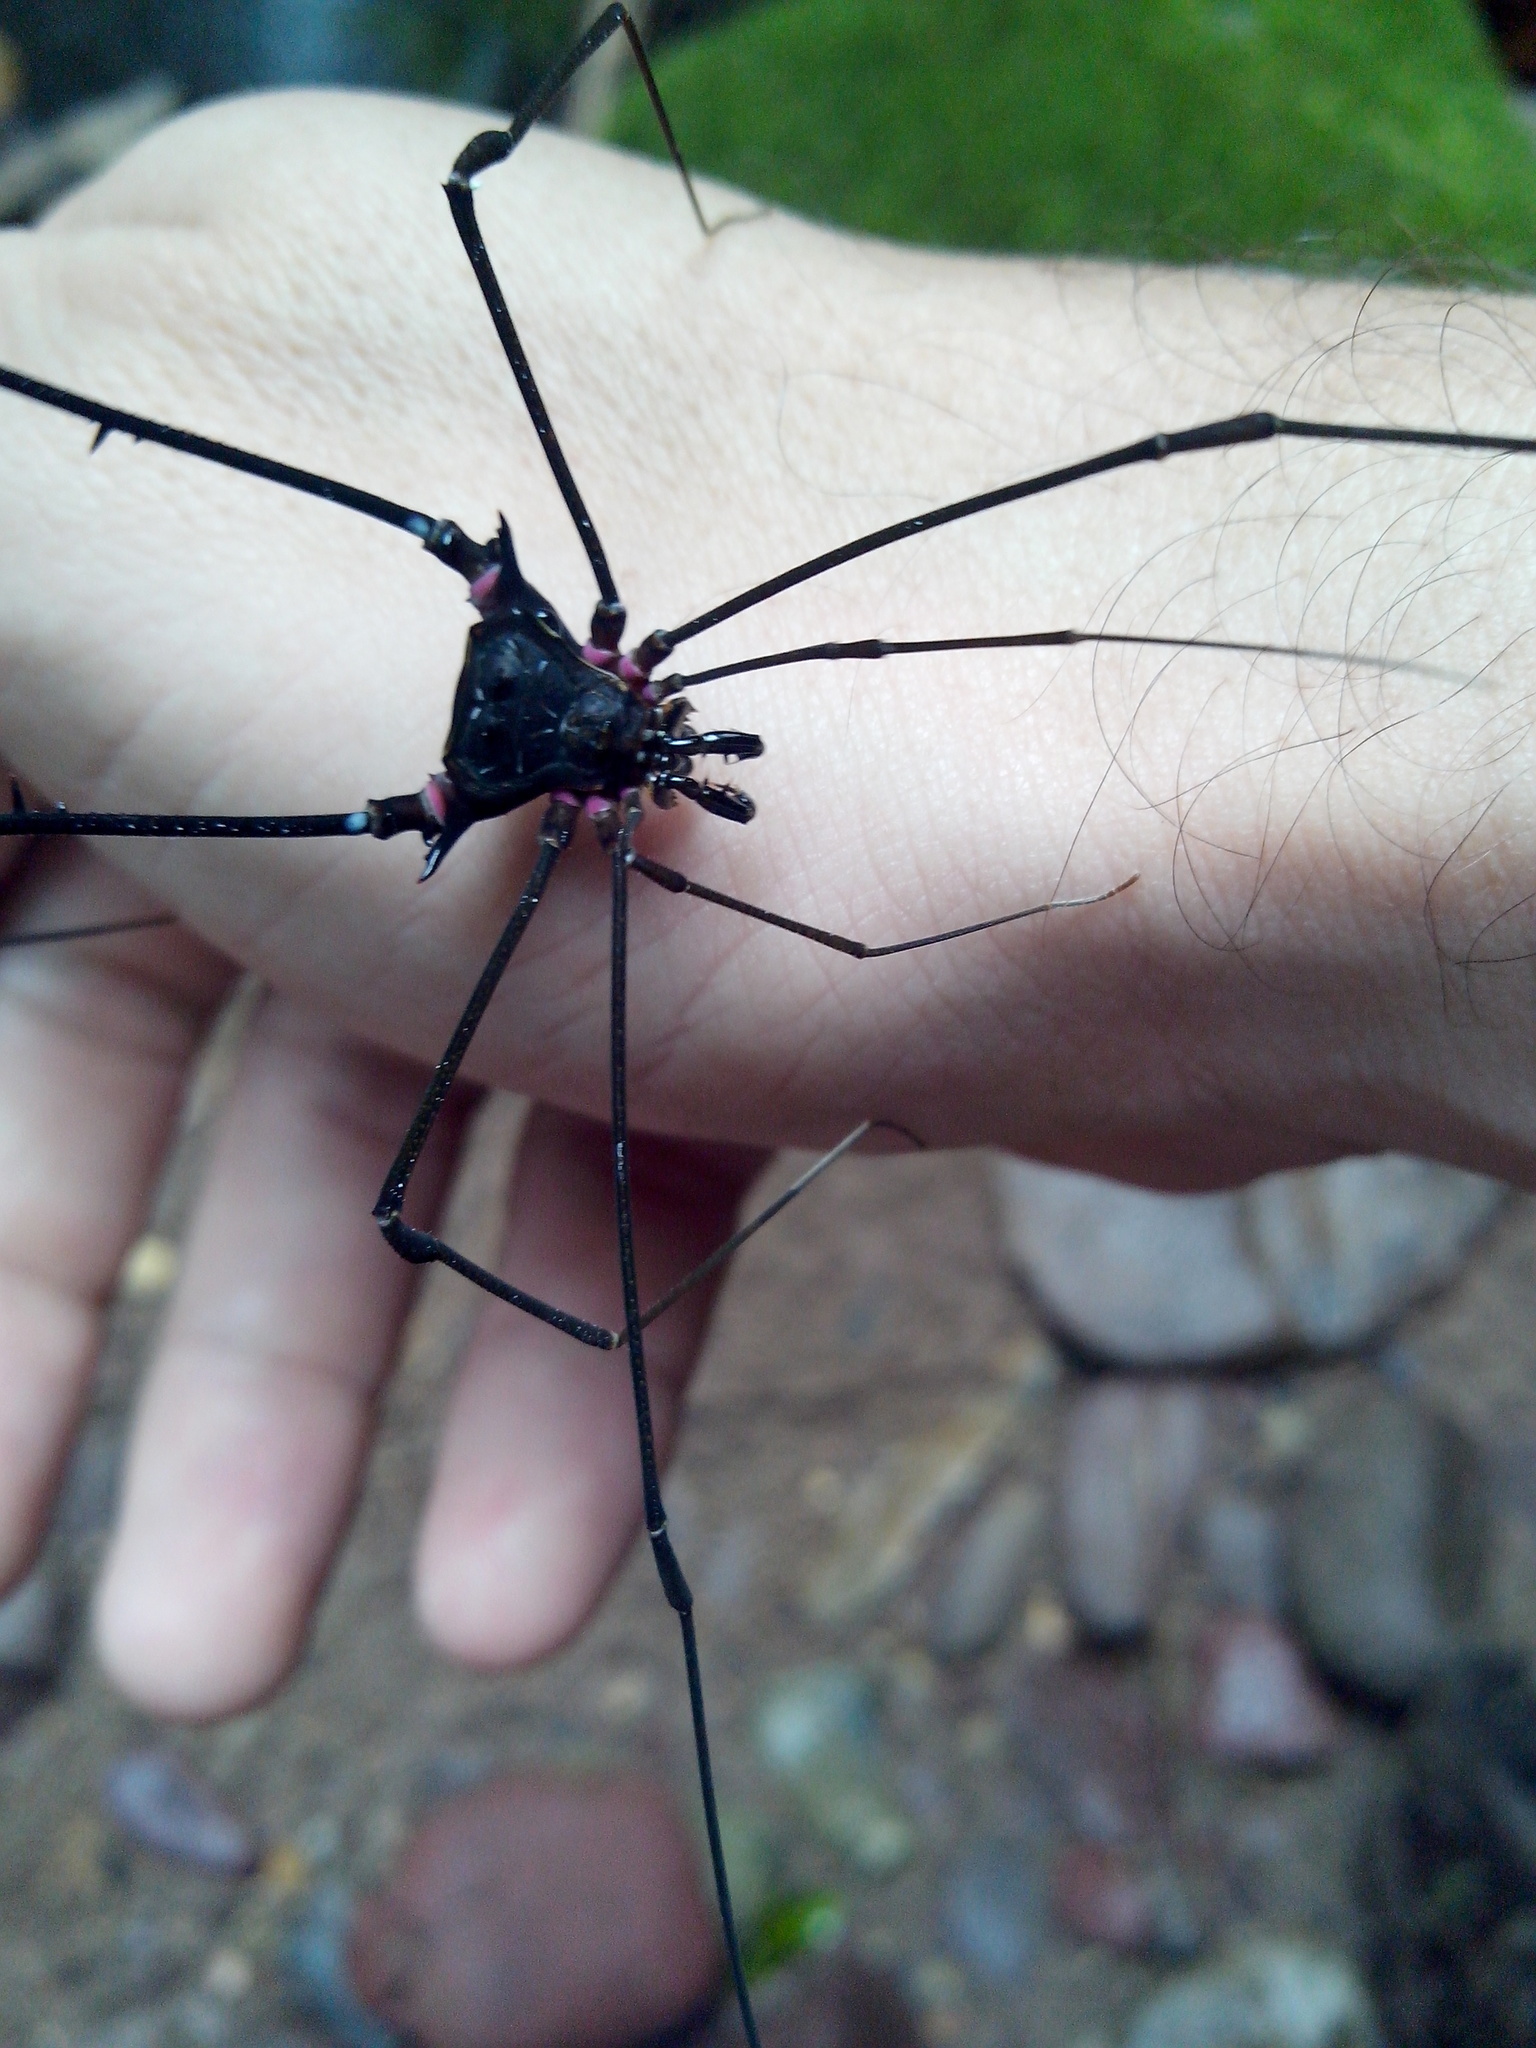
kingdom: Animalia
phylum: Arthropoda
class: Arachnida
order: Opiliones
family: Gonyleptidae
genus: Serracutisoma
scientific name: Serracutisoma fritzmuelleri
